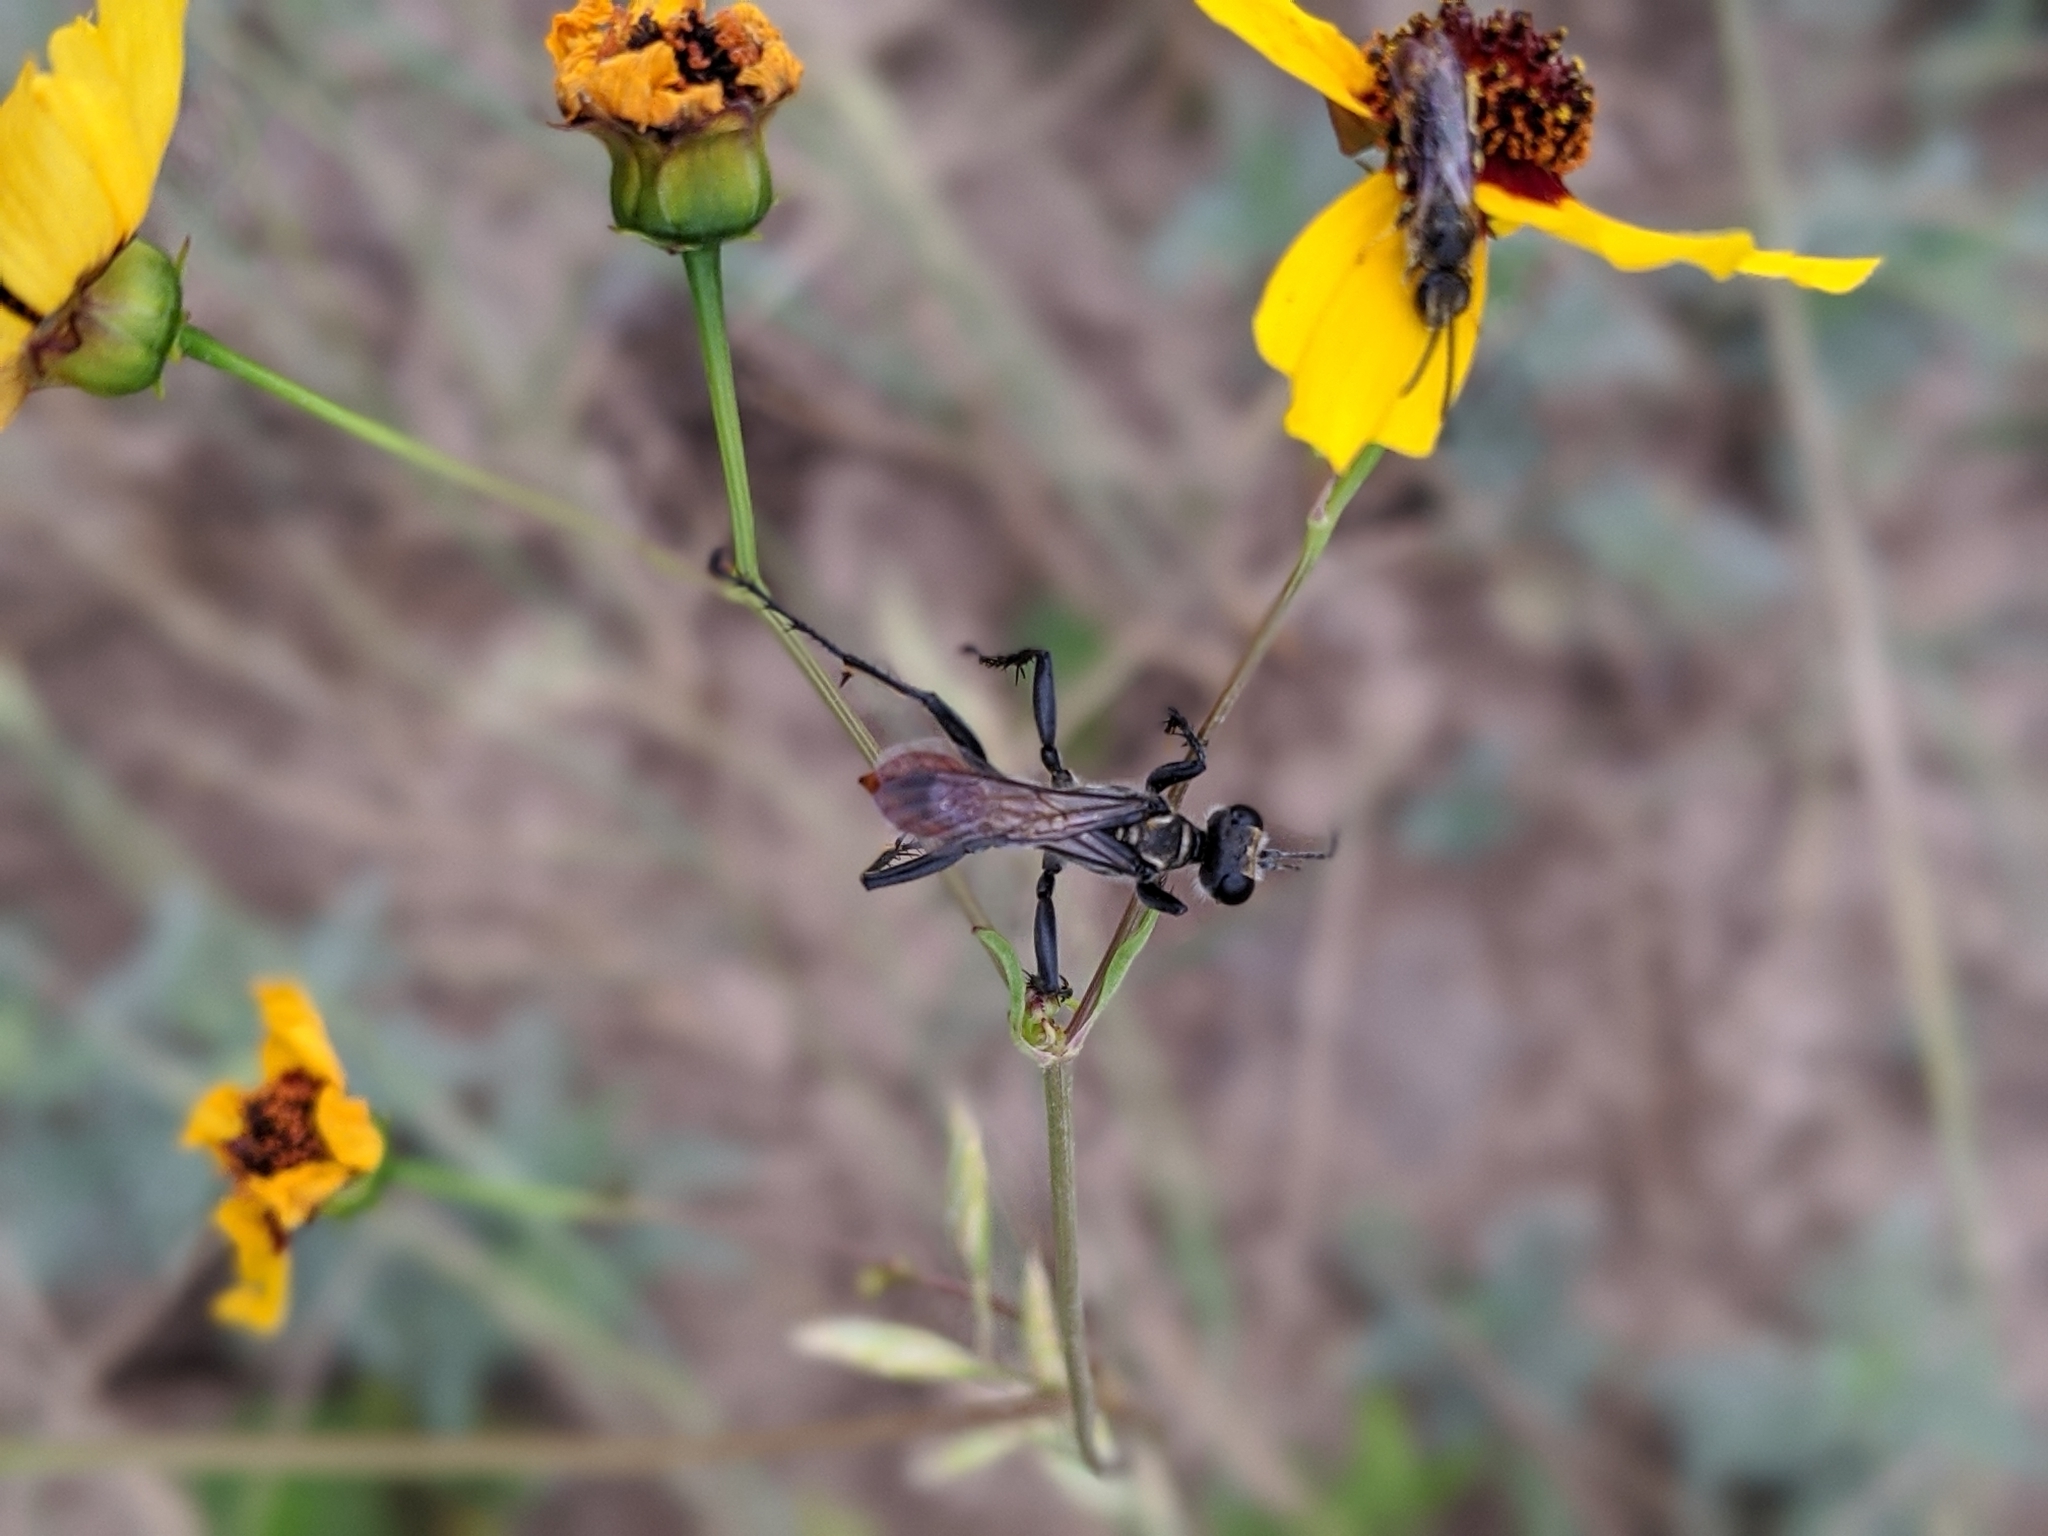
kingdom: Animalia
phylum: Arthropoda
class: Insecta
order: Hymenoptera
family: Sphecidae
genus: Prionyx
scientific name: Prionyx
